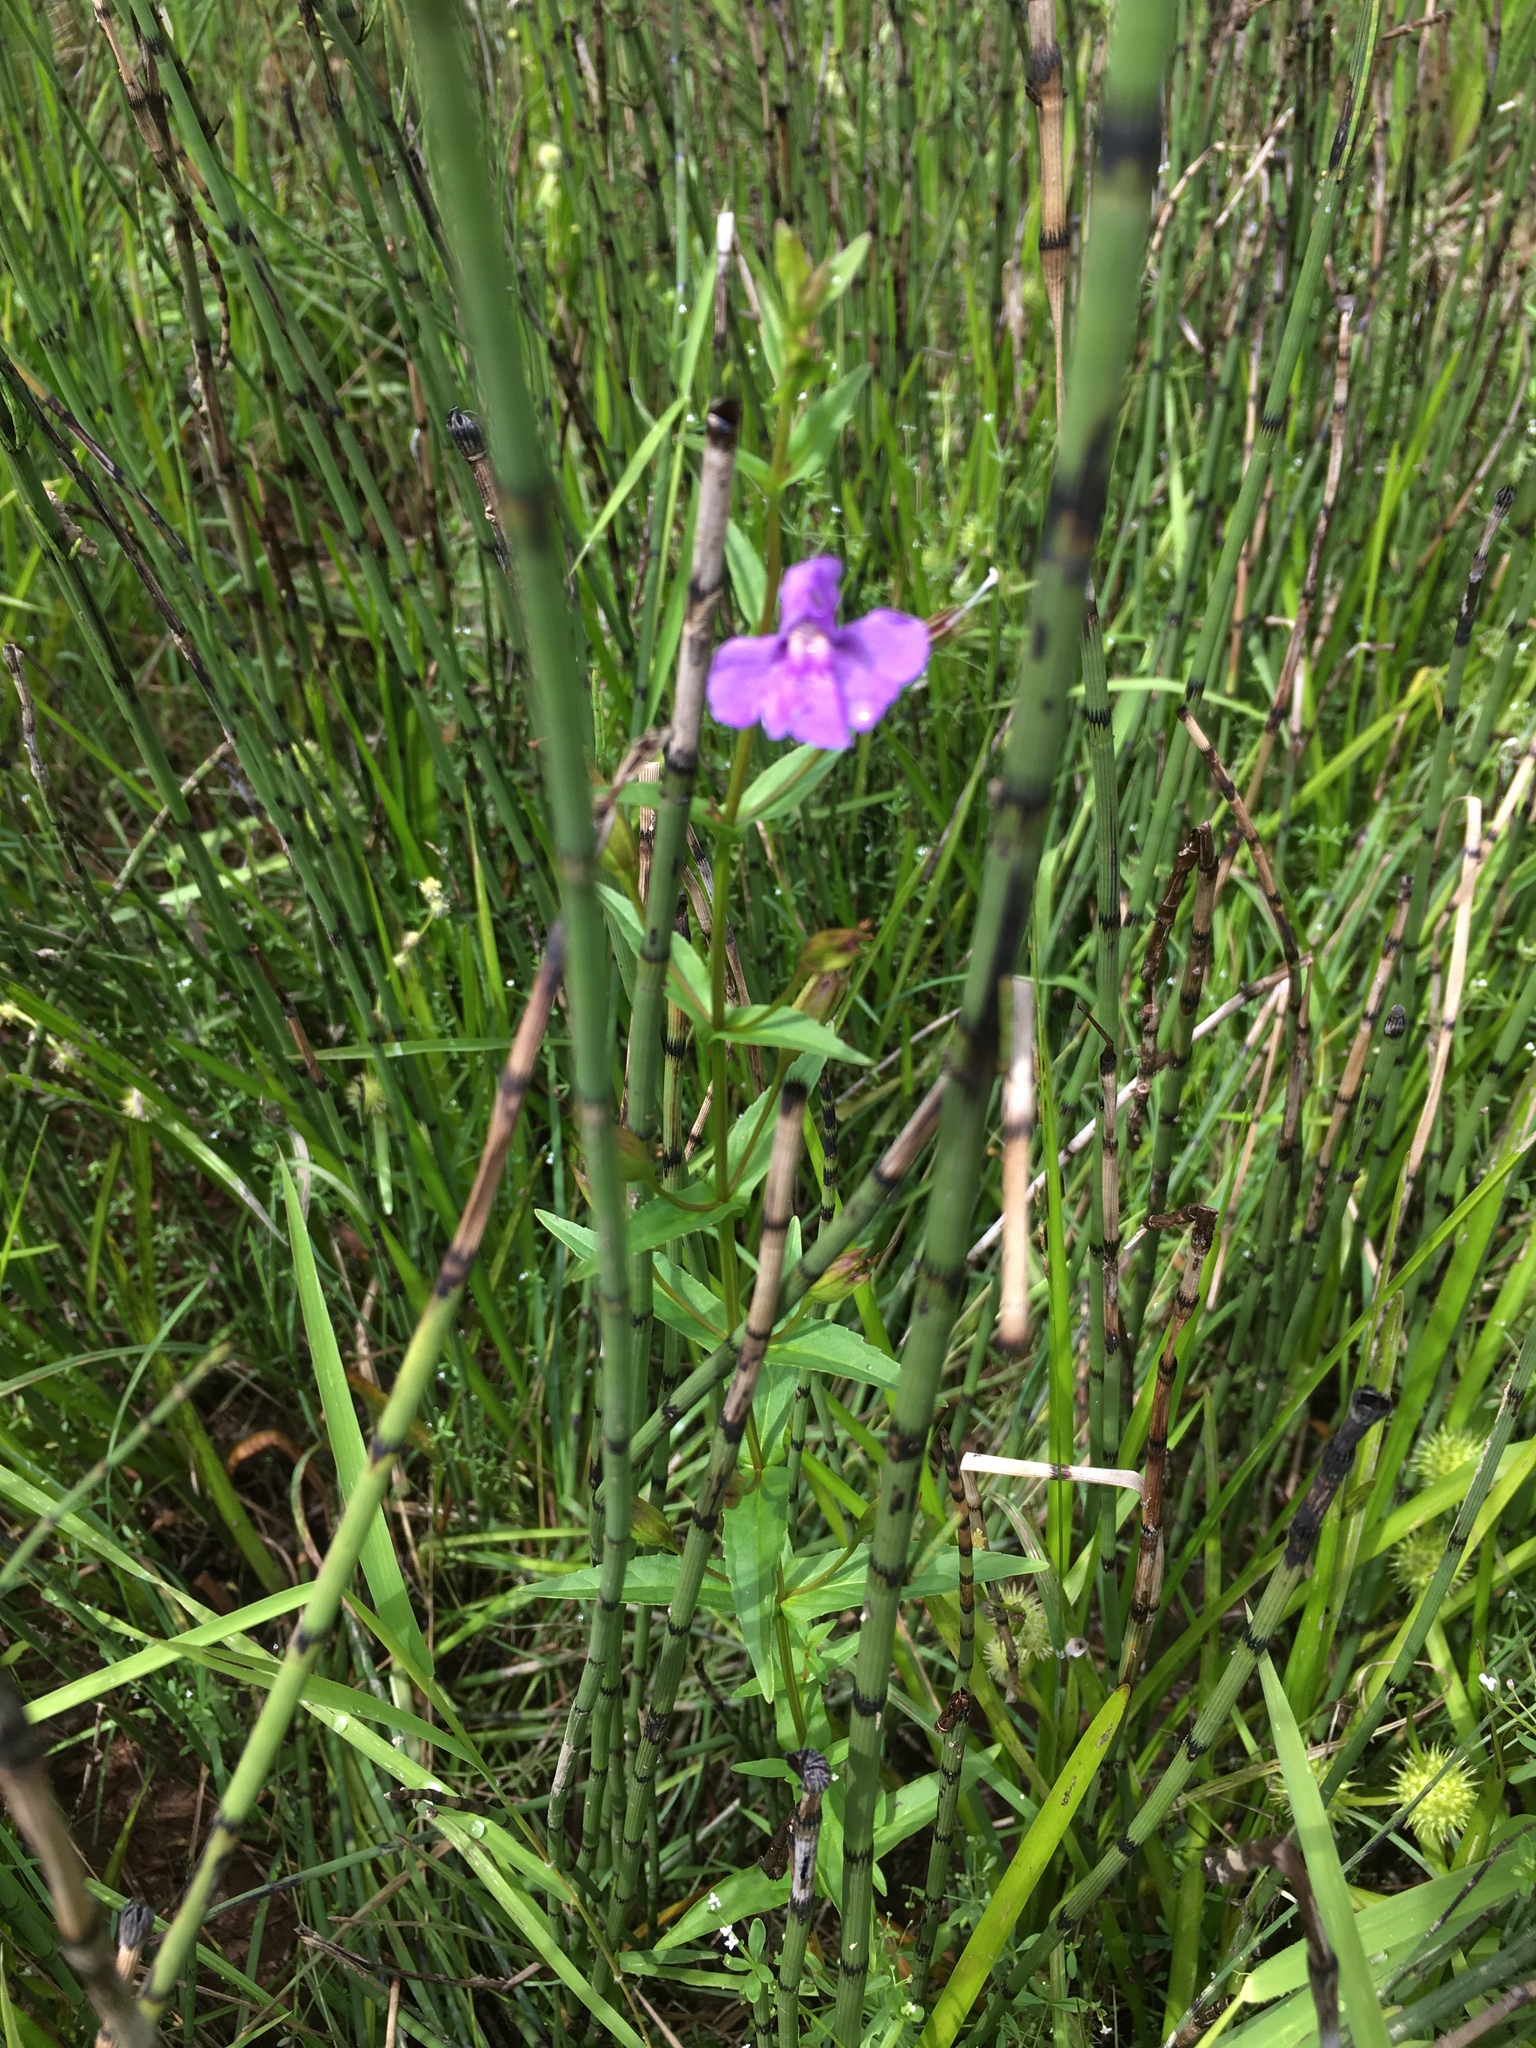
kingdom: Plantae
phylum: Tracheophyta
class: Magnoliopsida
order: Lamiales
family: Phrymaceae
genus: Mimulus
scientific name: Mimulus ringens
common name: Allegheny monkeyflower
